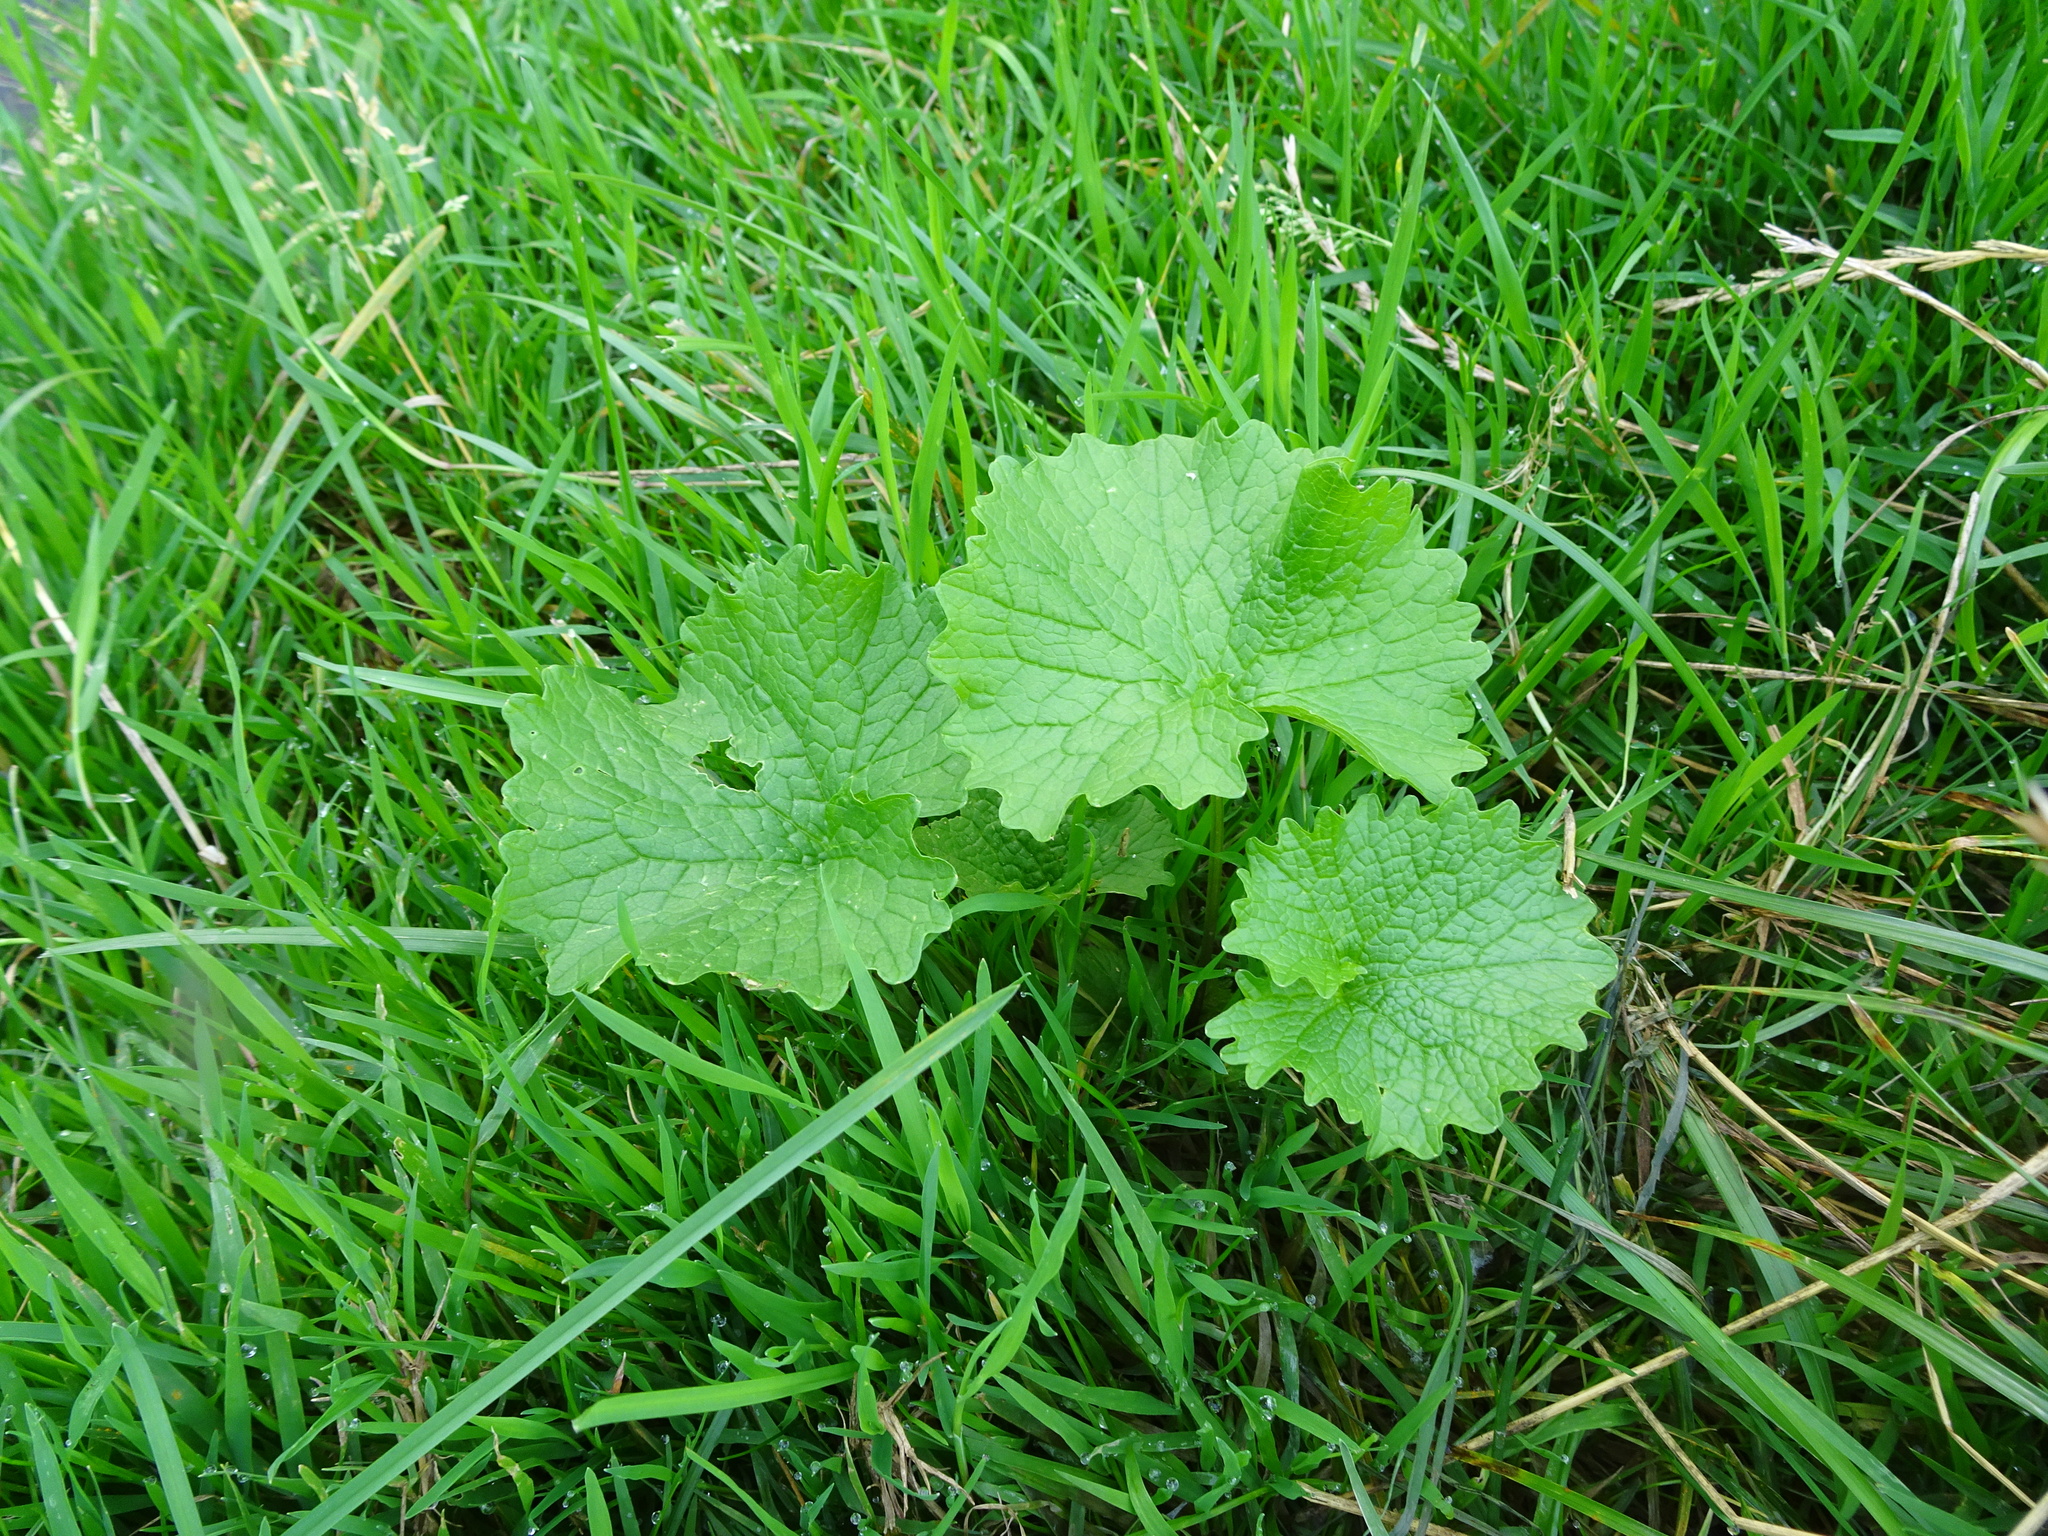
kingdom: Plantae
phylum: Tracheophyta
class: Magnoliopsida
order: Brassicales
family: Brassicaceae
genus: Alliaria
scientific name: Alliaria petiolata
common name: Garlic mustard
